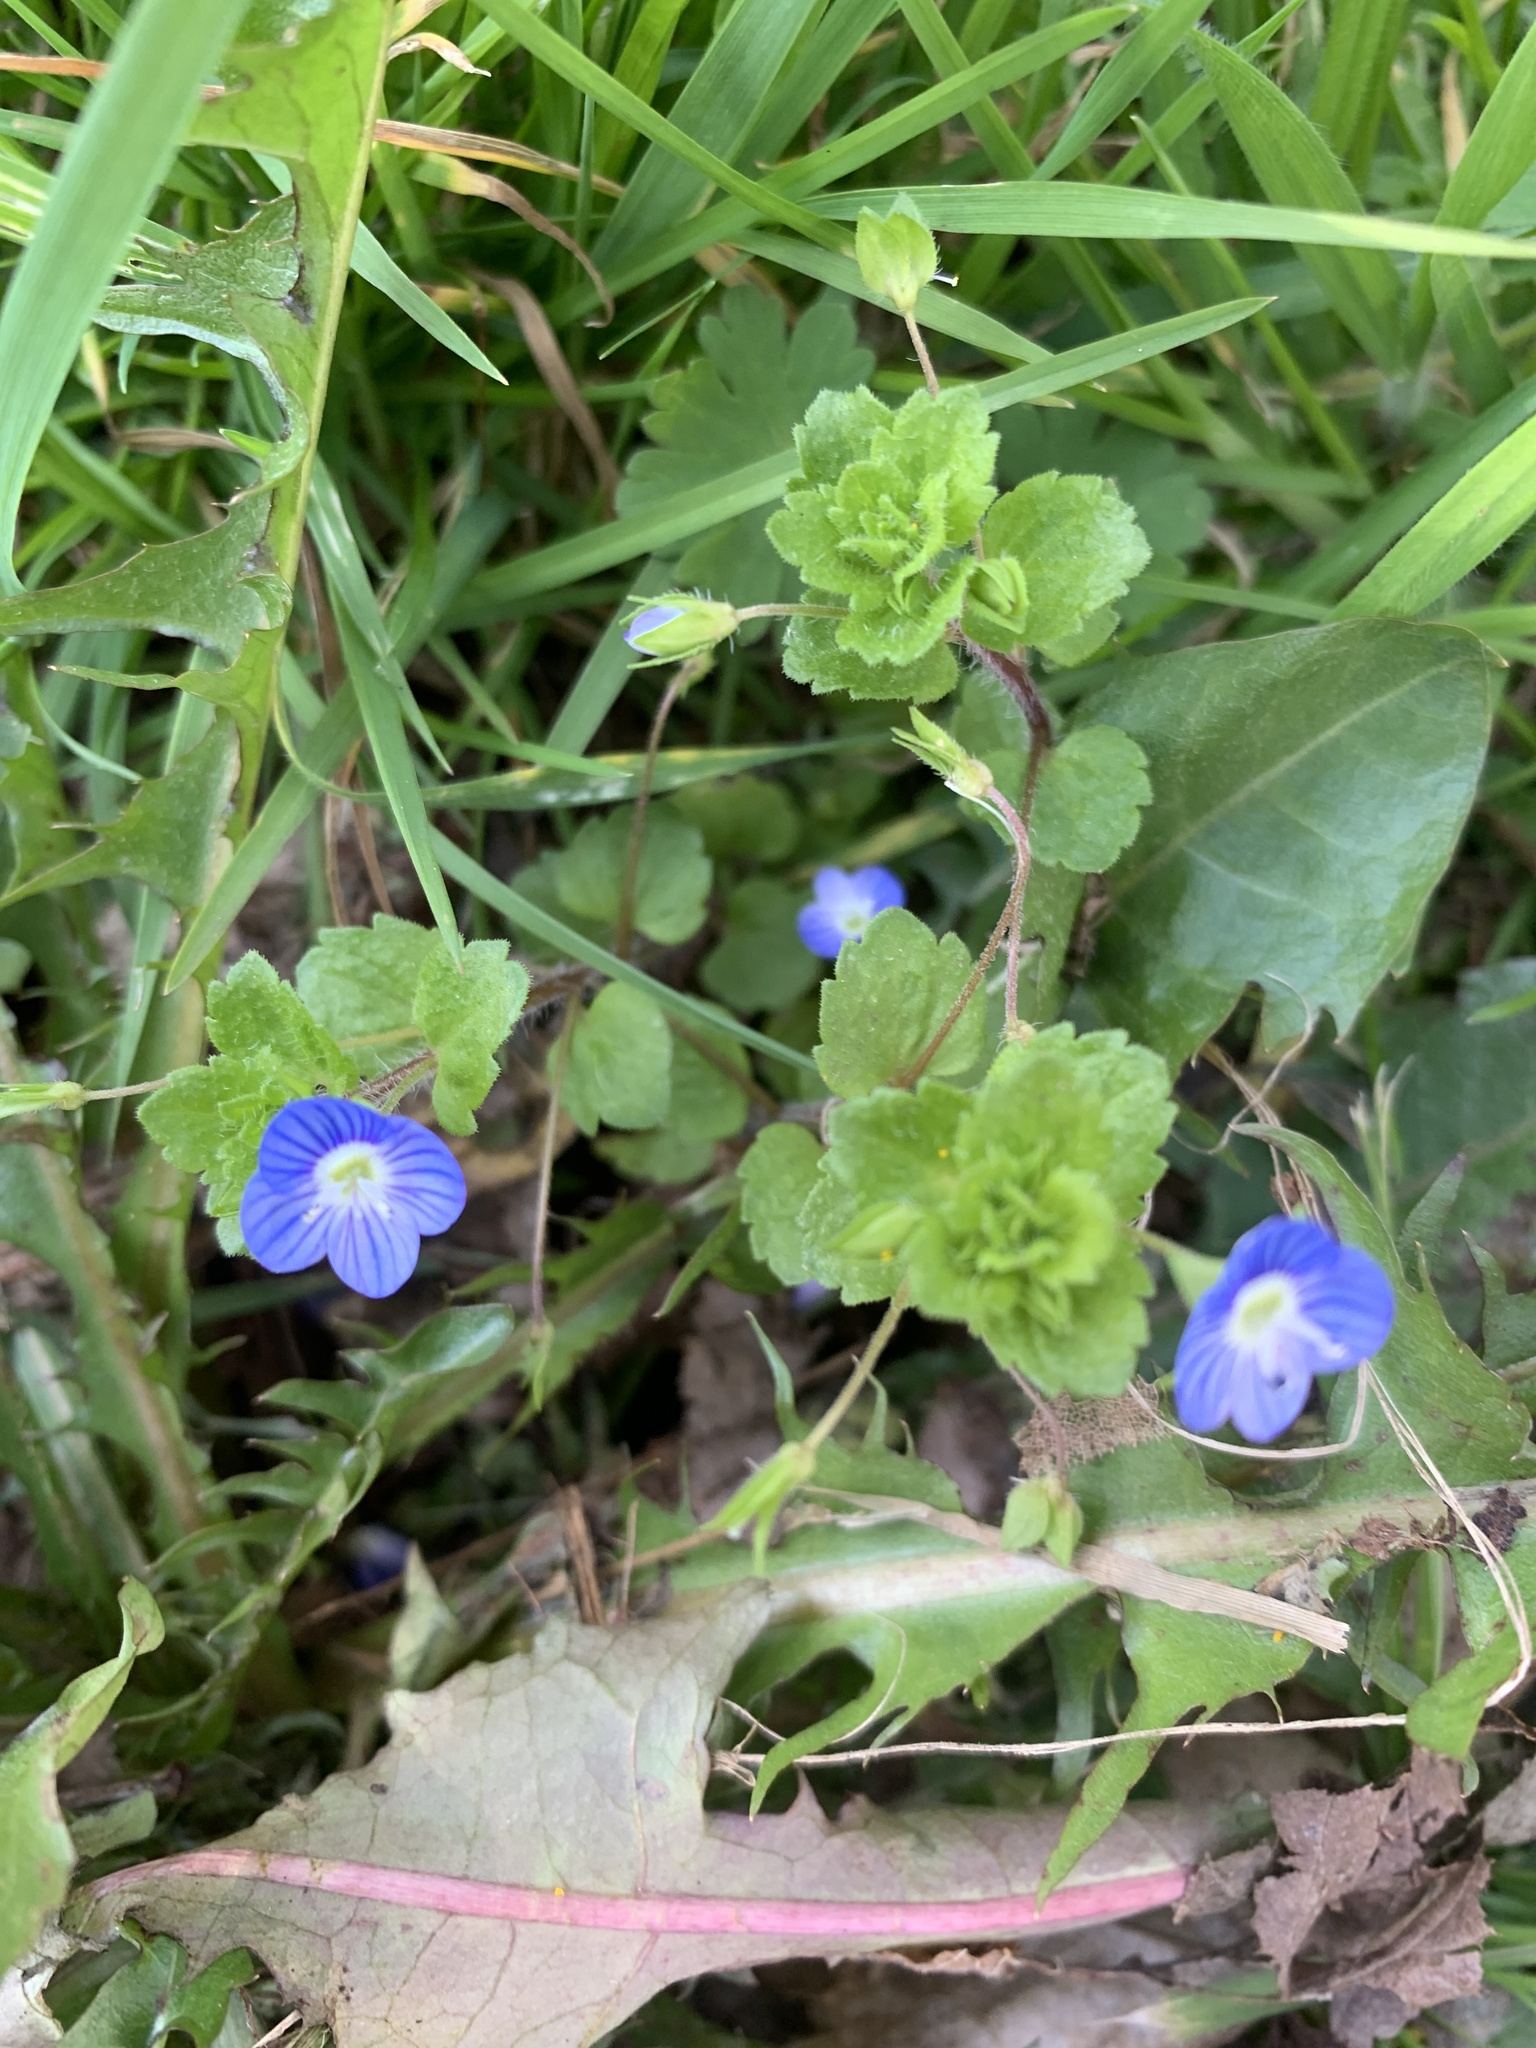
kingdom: Plantae
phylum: Tracheophyta
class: Magnoliopsida
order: Lamiales
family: Plantaginaceae
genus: Veronica
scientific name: Veronica persica
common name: Common field-speedwell
